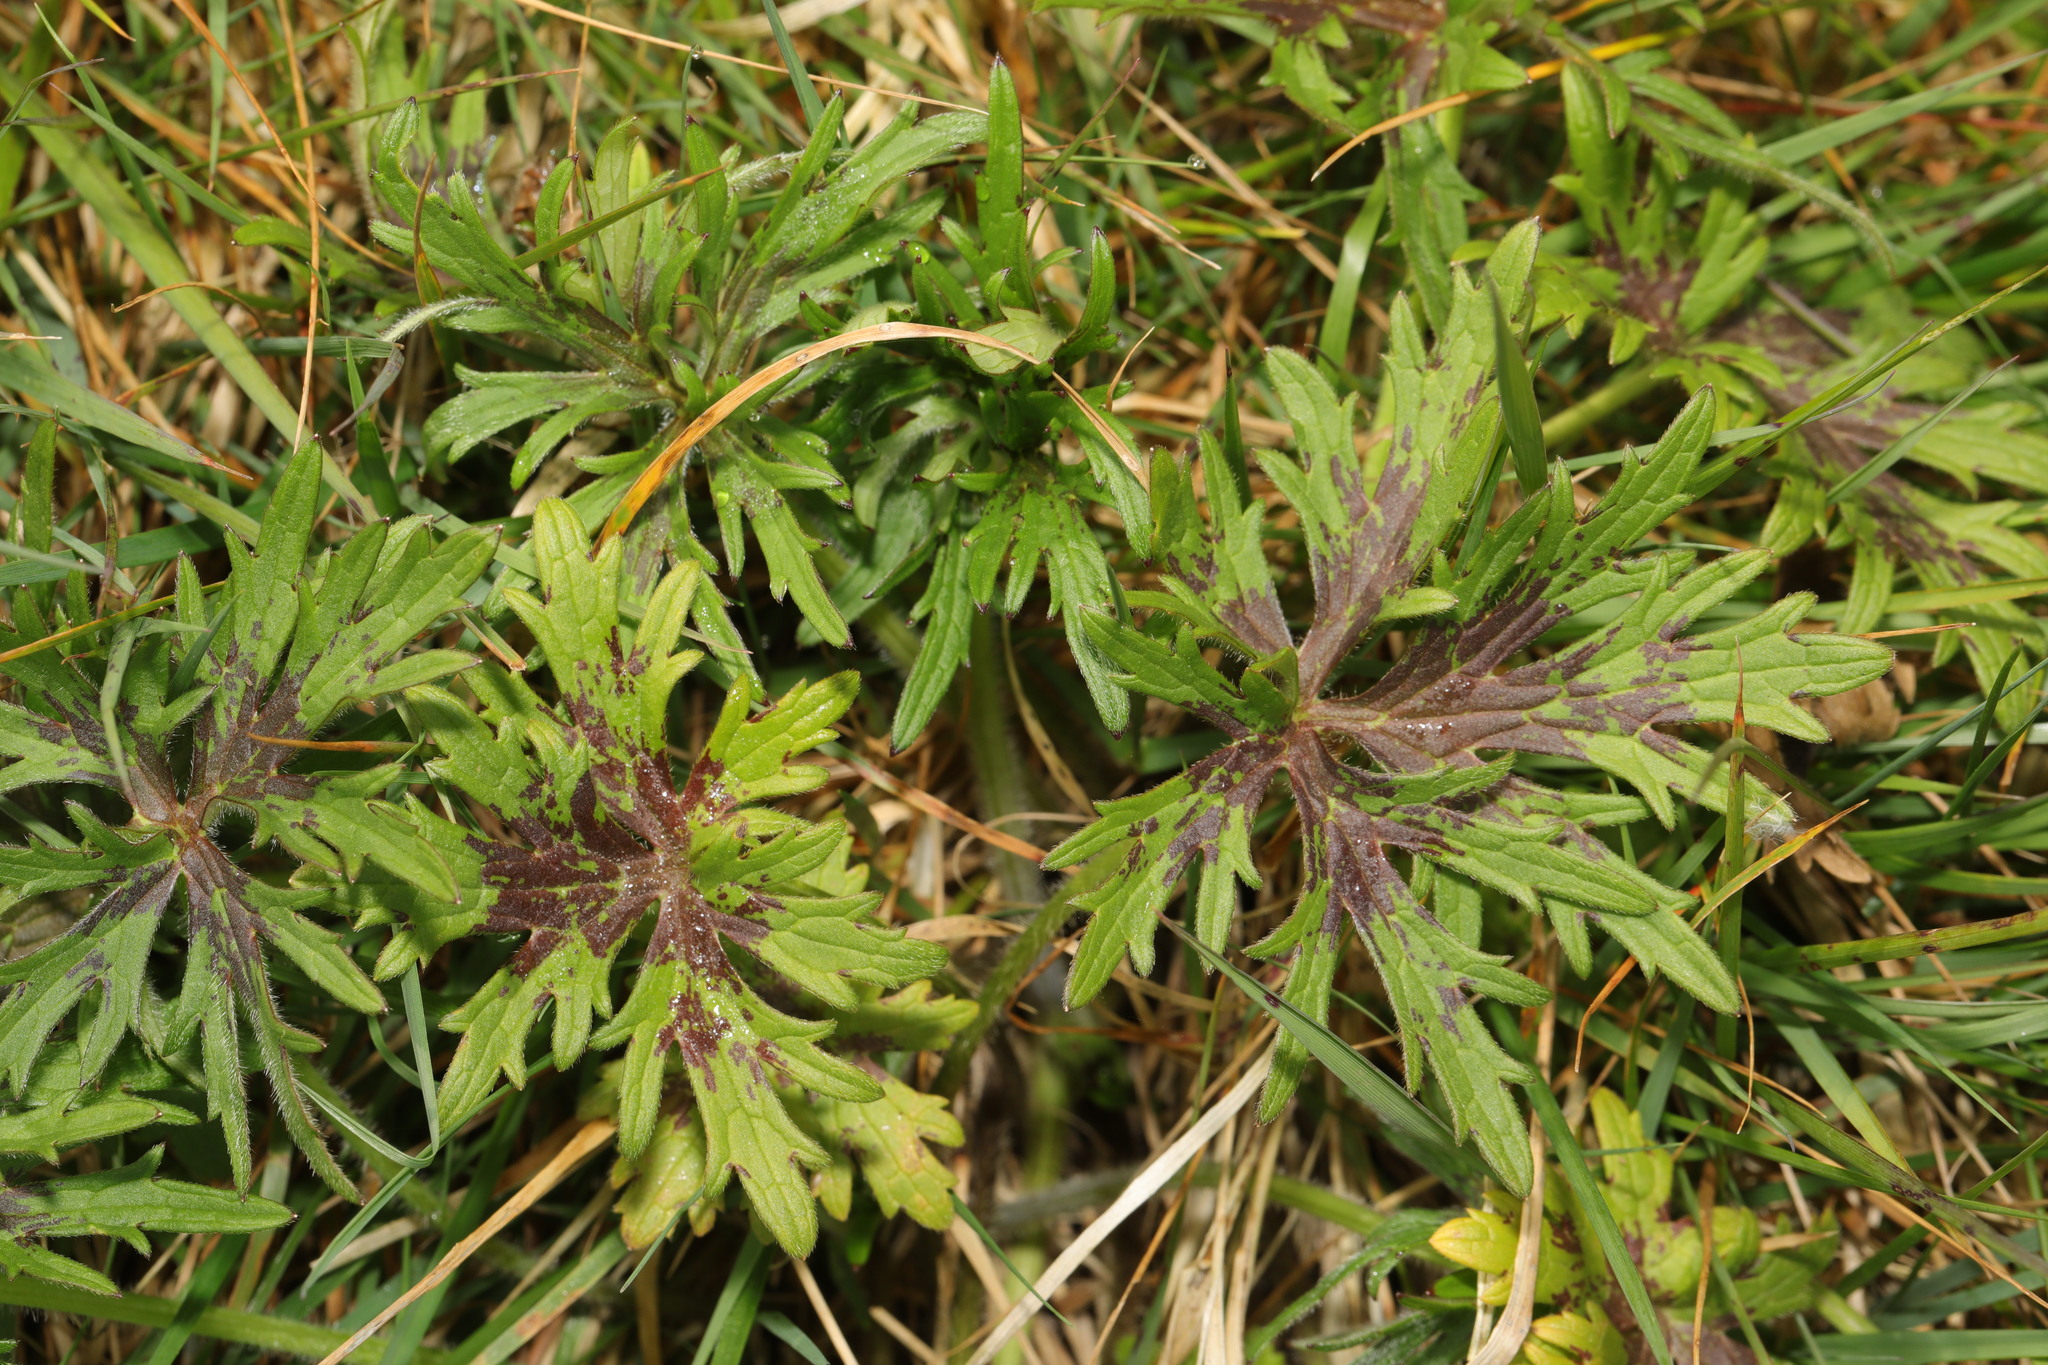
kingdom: Plantae
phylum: Tracheophyta
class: Magnoliopsida
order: Ranunculales
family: Ranunculaceae
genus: Ranunculus
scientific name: Ranunculus acris
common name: Meadow buttercup
